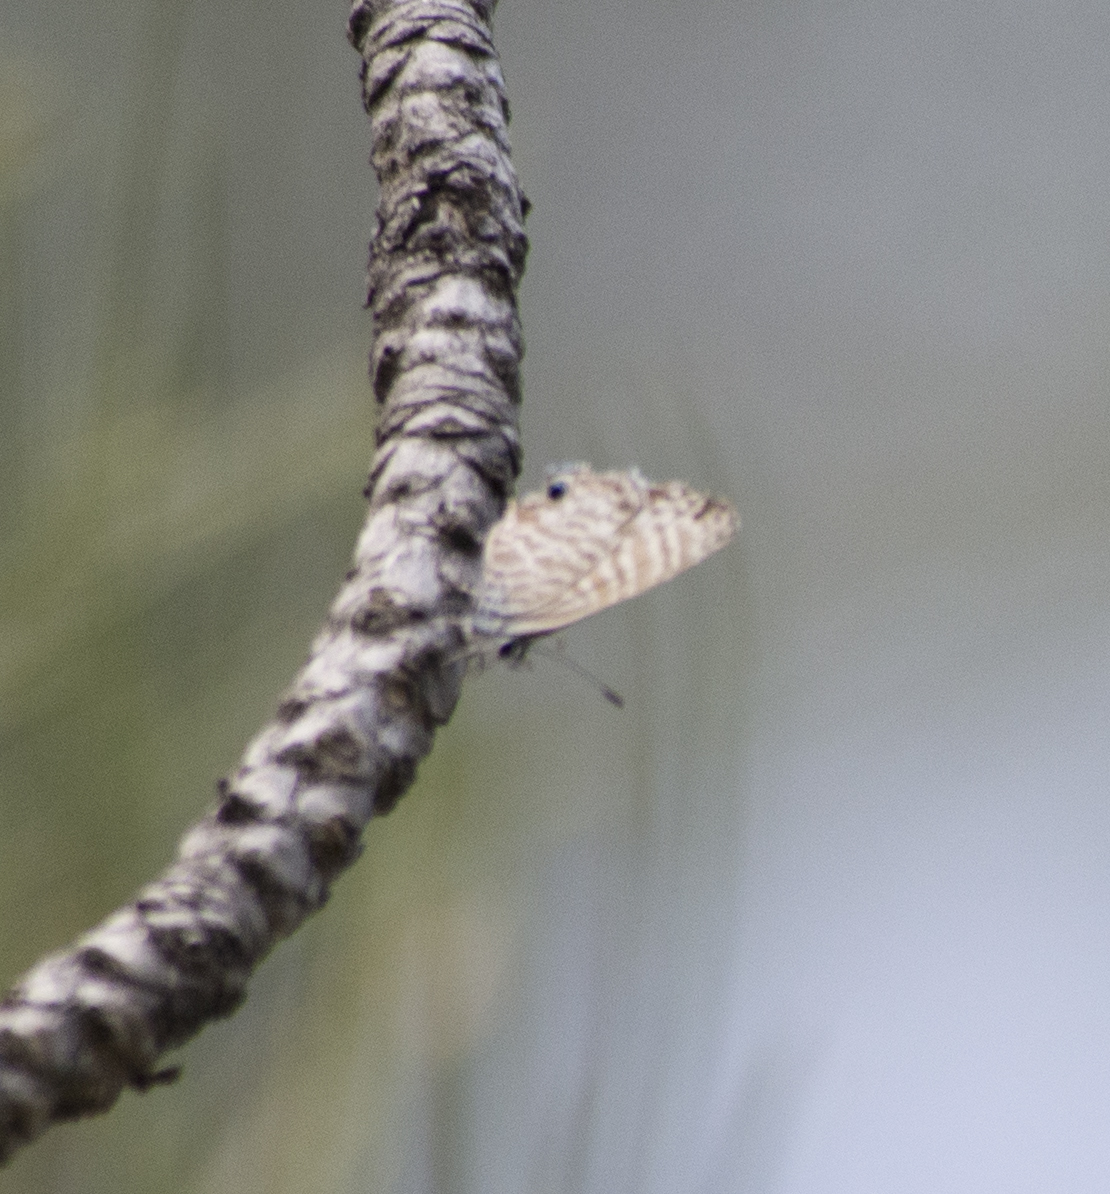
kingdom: Animalia
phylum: Arthropoda
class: Insecta
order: Lepidoptera
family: Lycaenidae
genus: Leptotes
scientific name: Leptotes marina
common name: Marine blue
